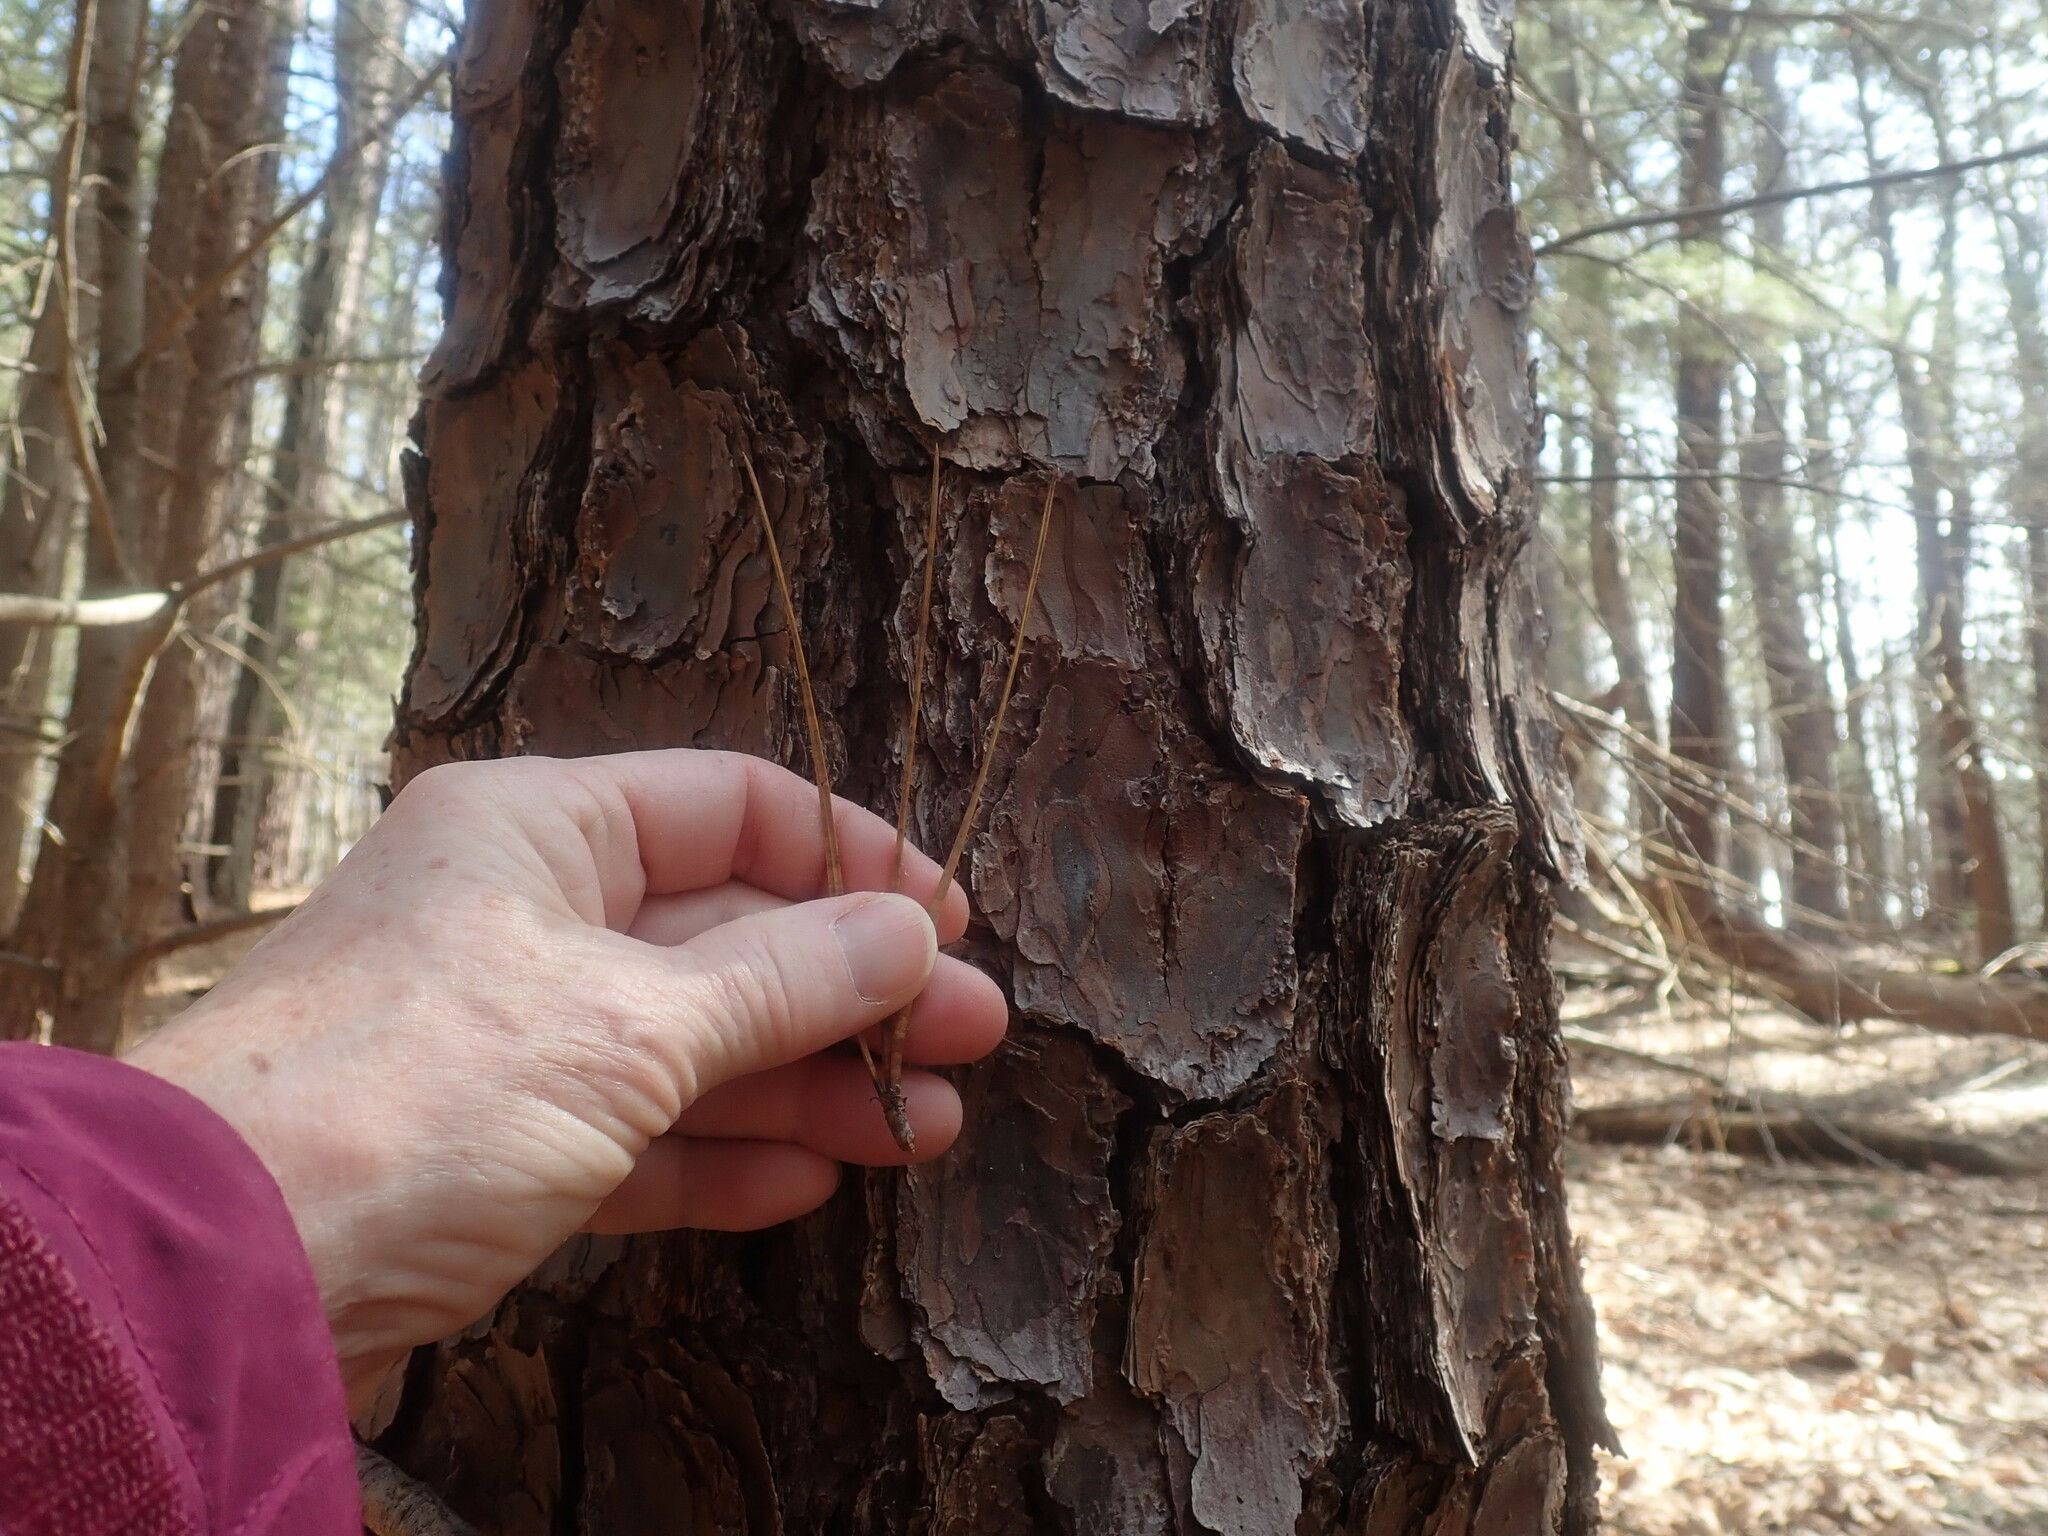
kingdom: Plantae
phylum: Tracheophyta
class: Pinopsida
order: Pinales
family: Pinaceae
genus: Pinus
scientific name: Pinus rigida
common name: Pitch pine
